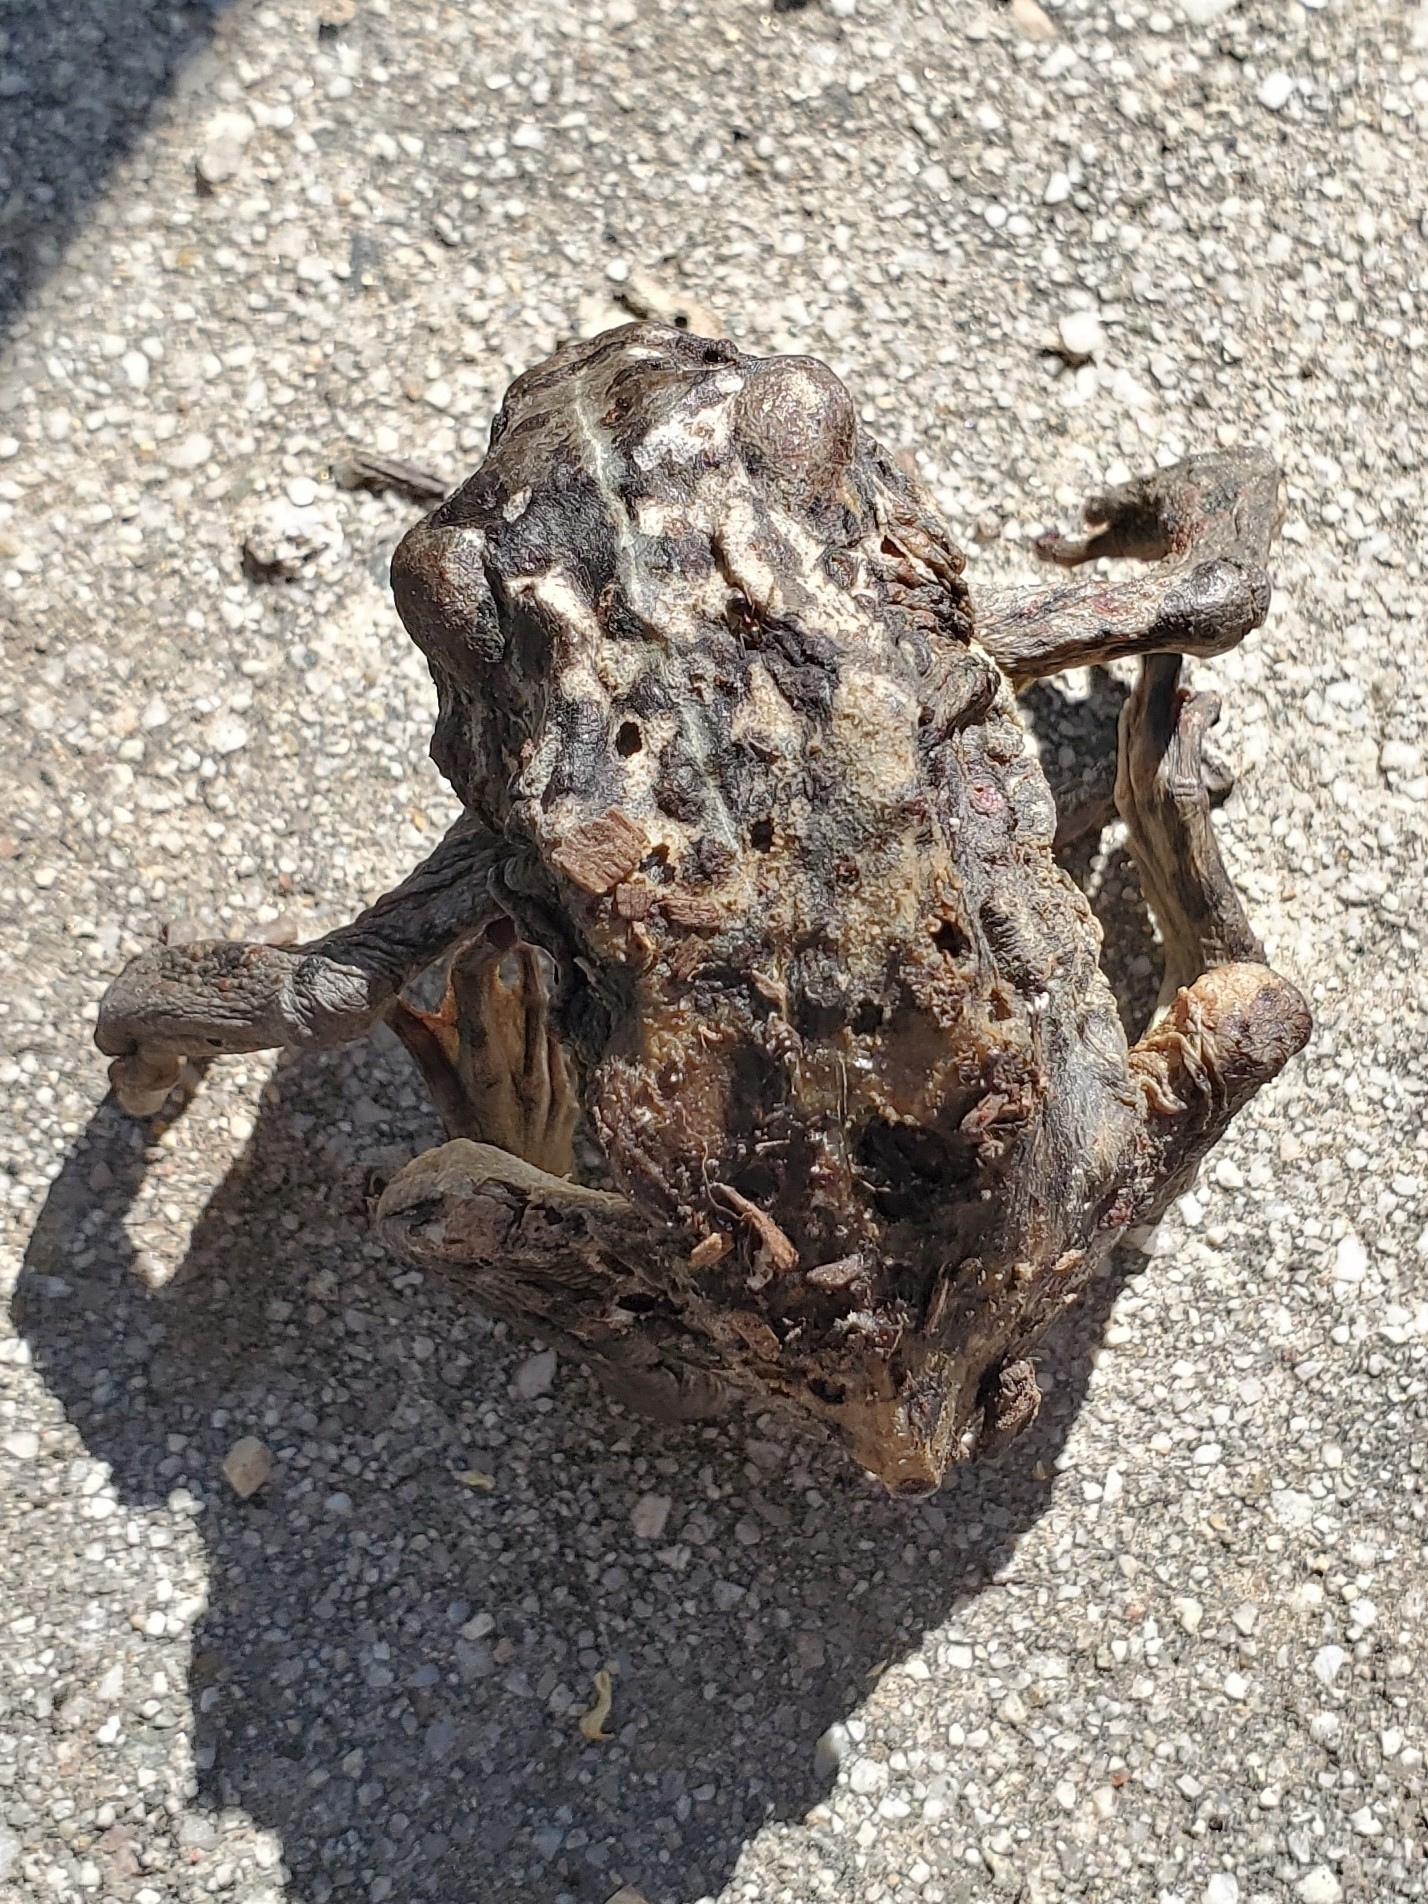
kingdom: Animalia
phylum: Chordata
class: Amphibia
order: Anura
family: Bufonidae
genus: Anaxyrus
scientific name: Anaxyrus boreas
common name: Western toad
